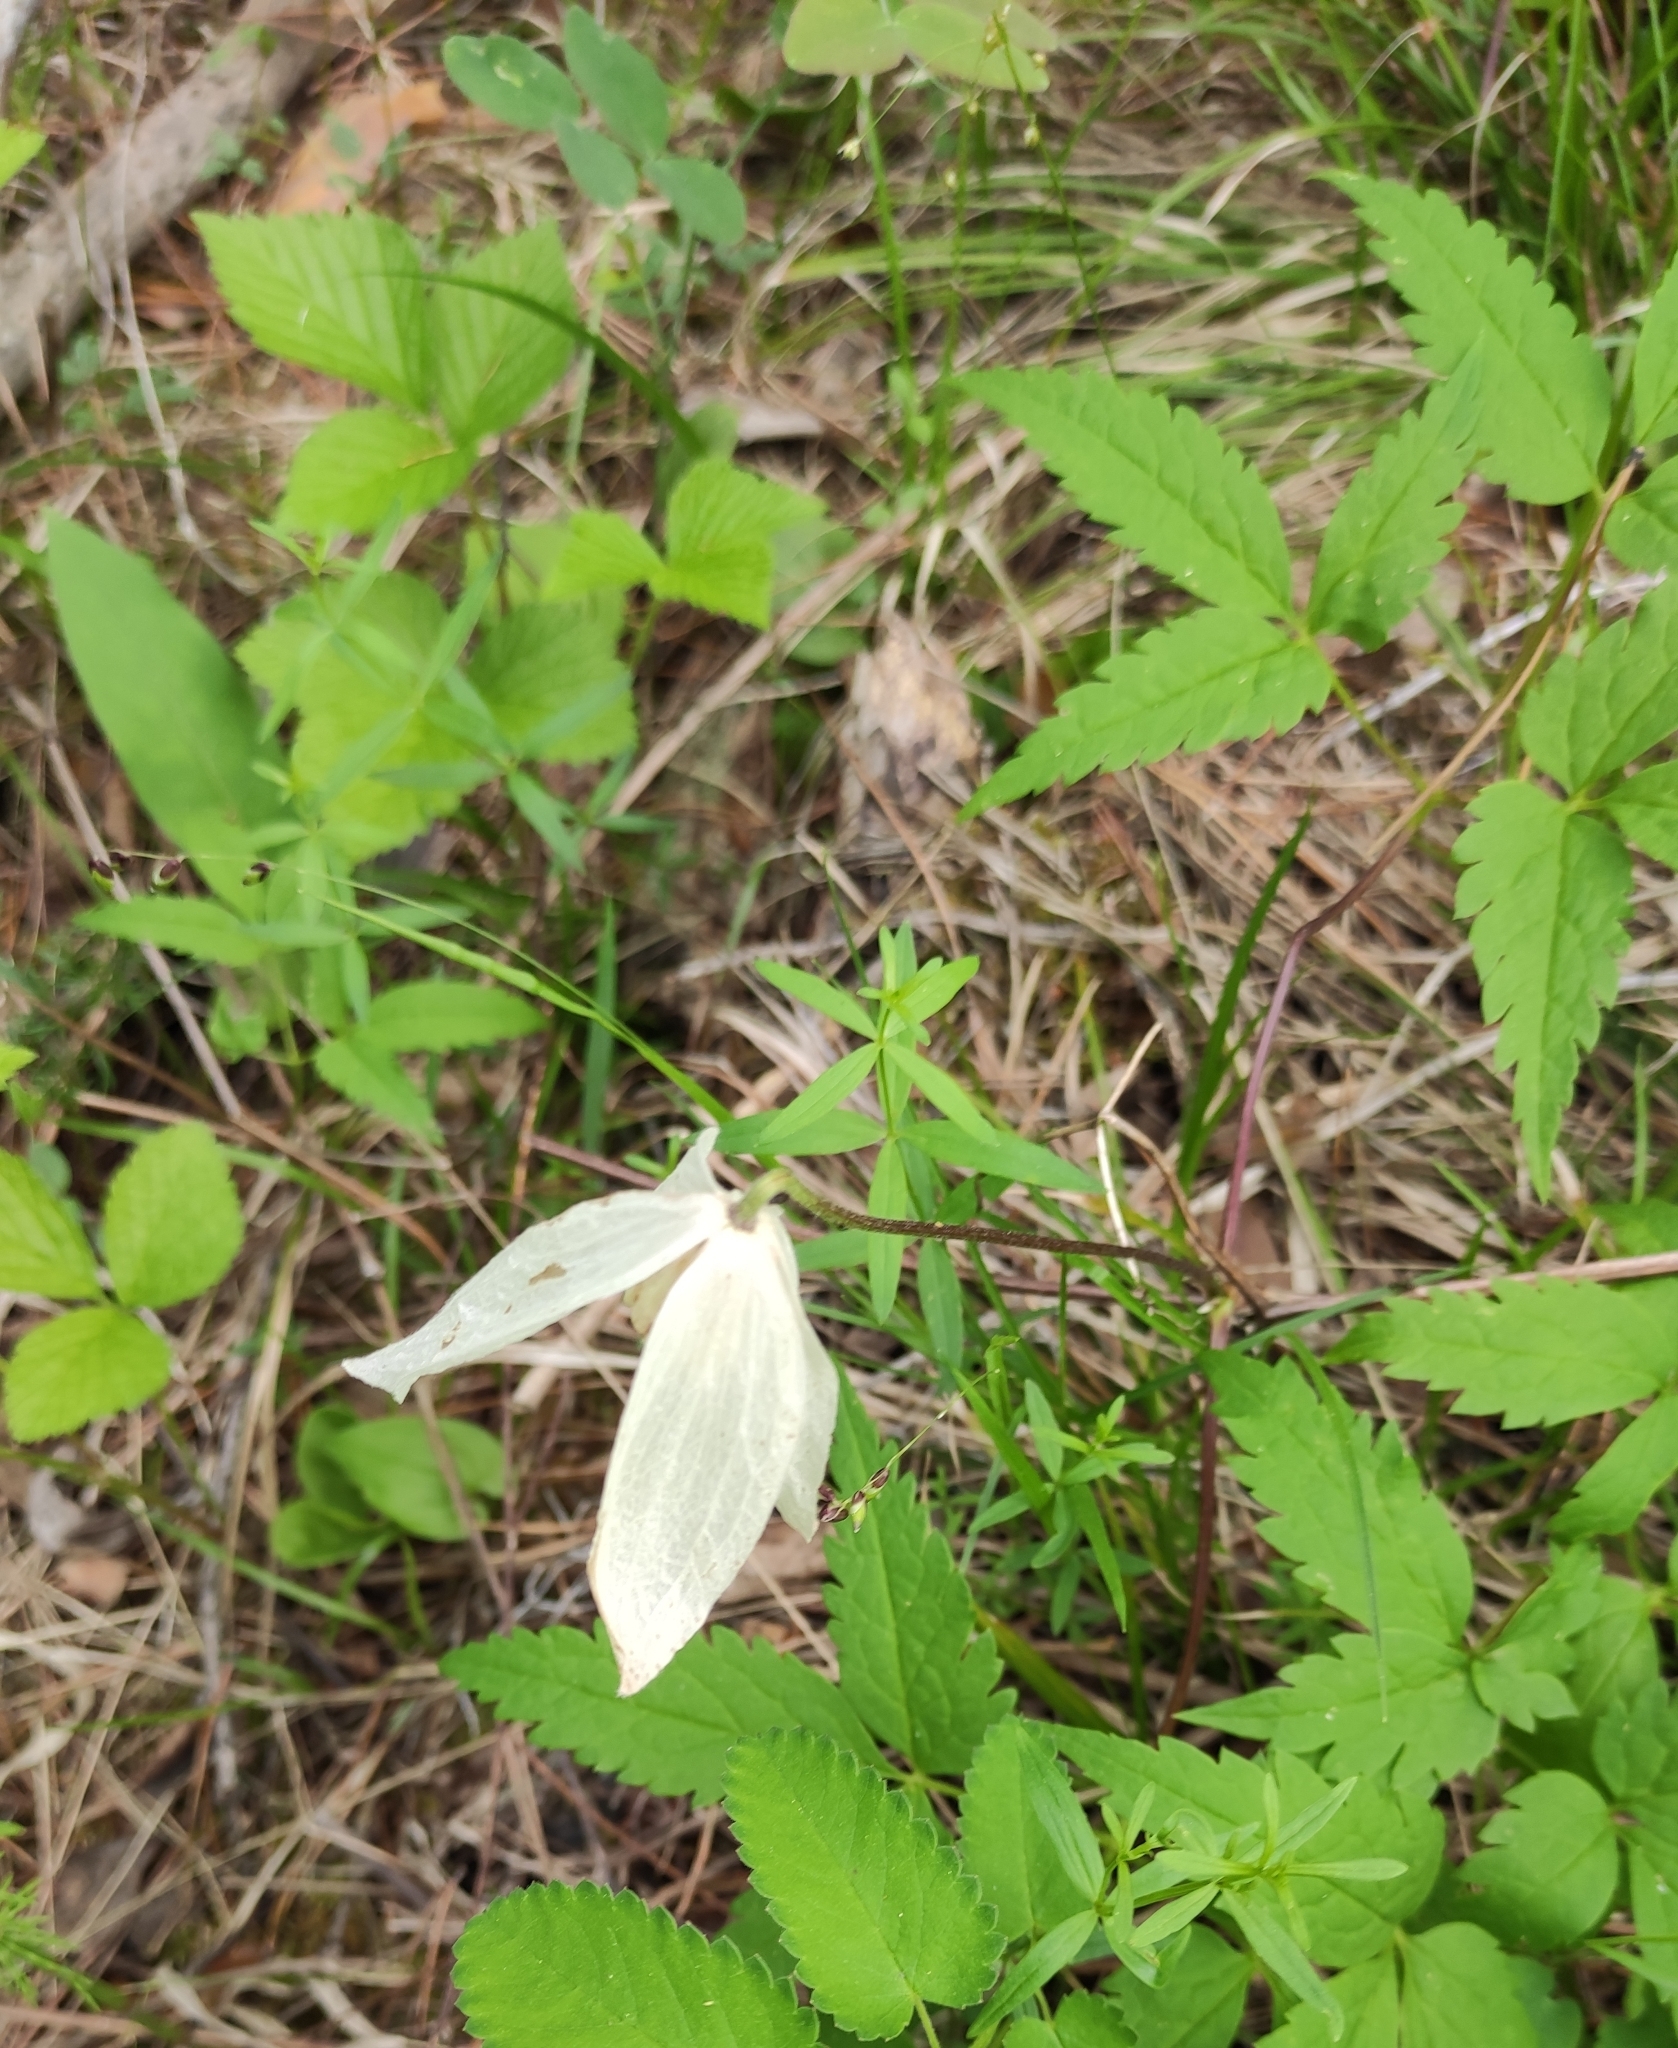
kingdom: Plantae
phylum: Tracheophyta
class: Magnoliopsida
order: Ranunculales
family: Ranunculaceae
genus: Clematis
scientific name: Clematis sibirica
